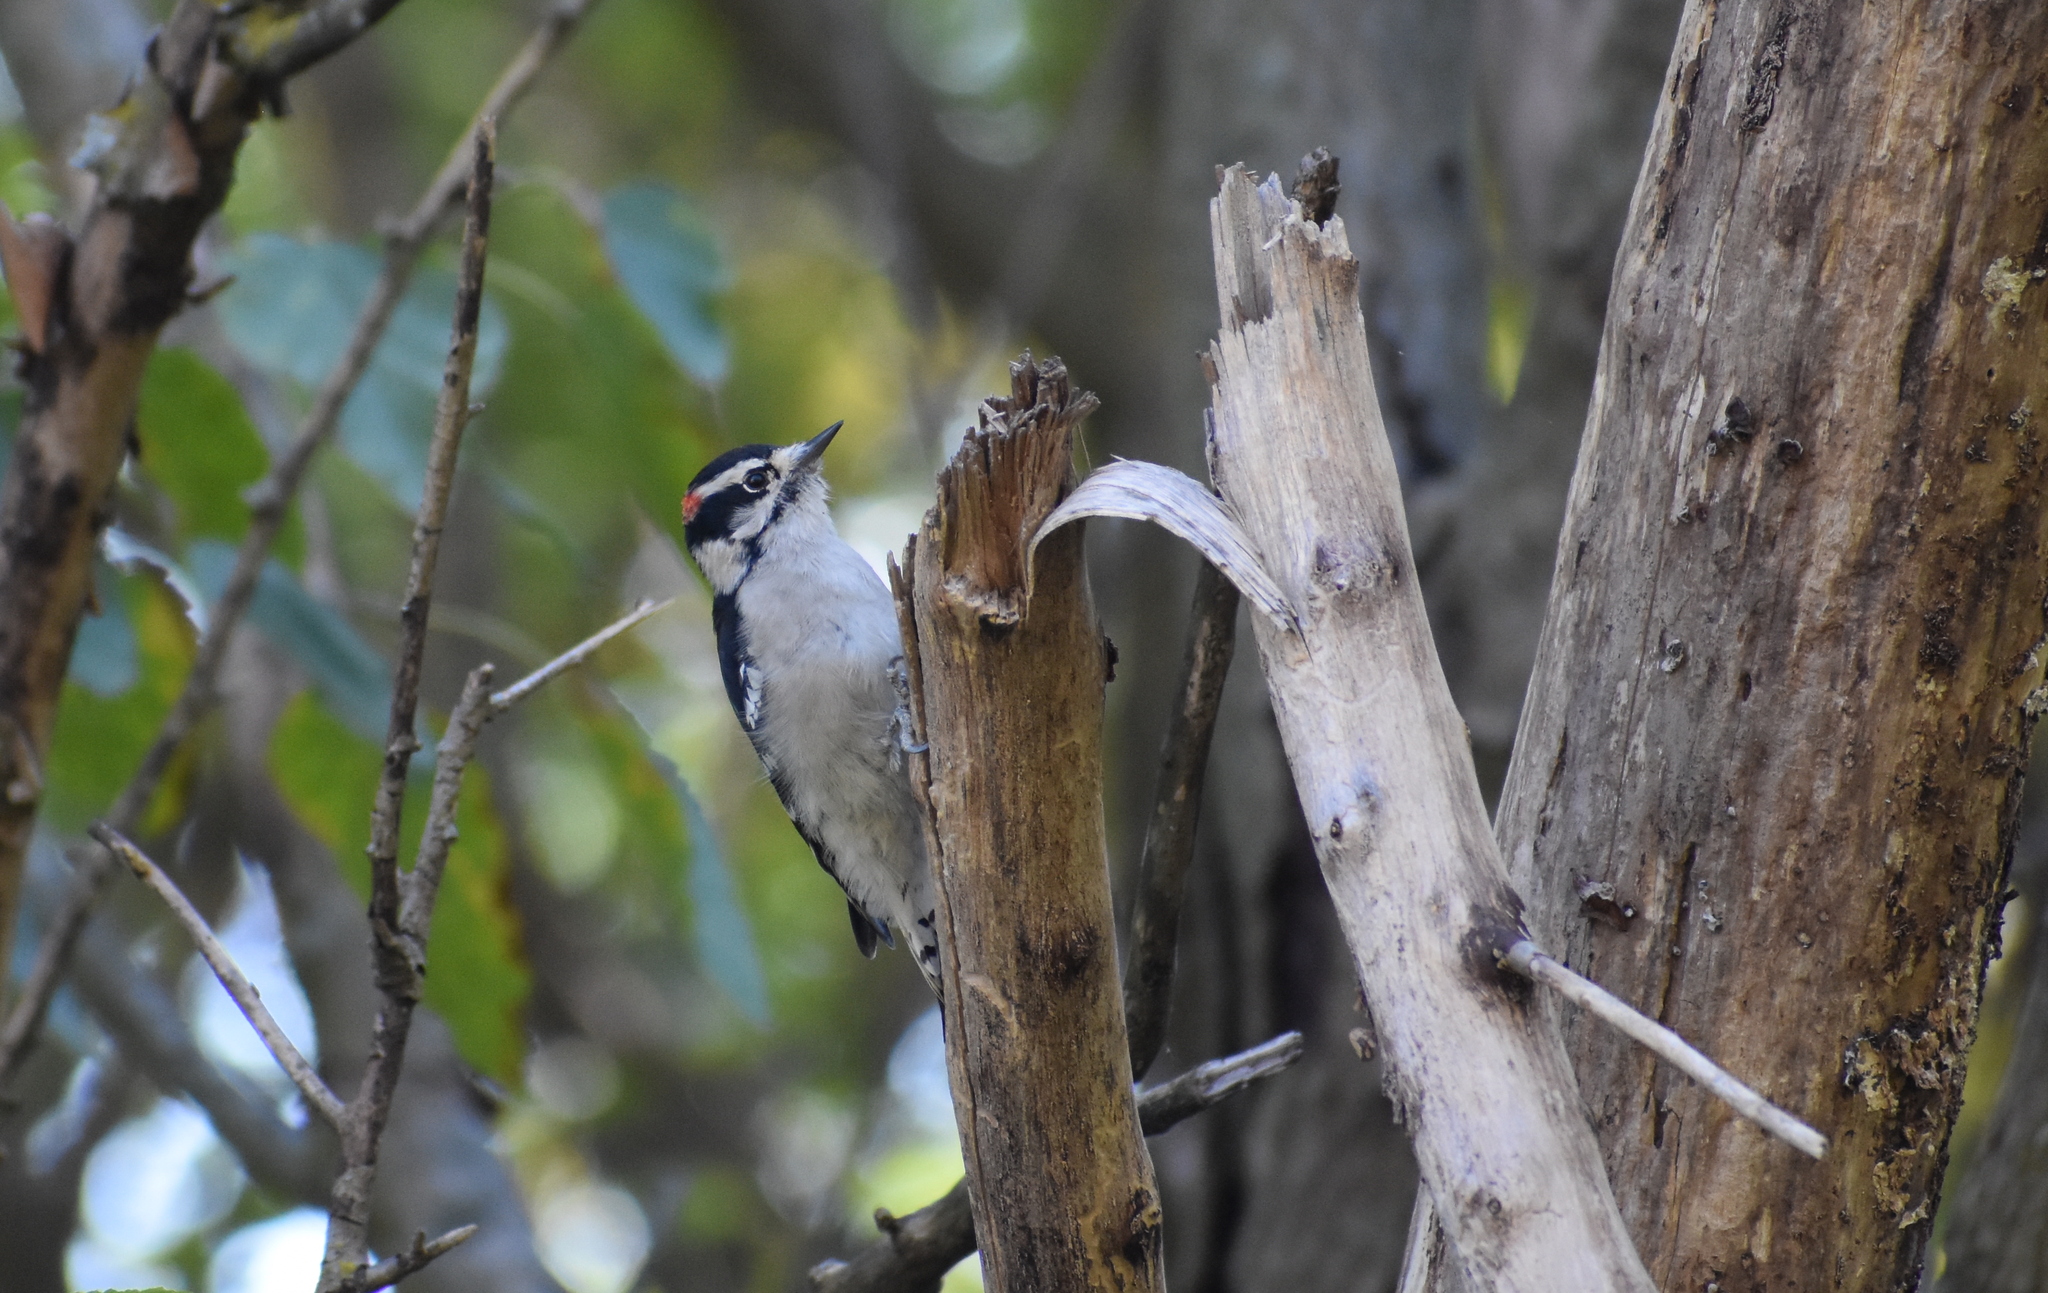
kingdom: Animalia
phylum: Chordata
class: Aves
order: Piciformes
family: Picidae
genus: Dryobates
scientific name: Dryobates pubescens
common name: Downy woodpecker
